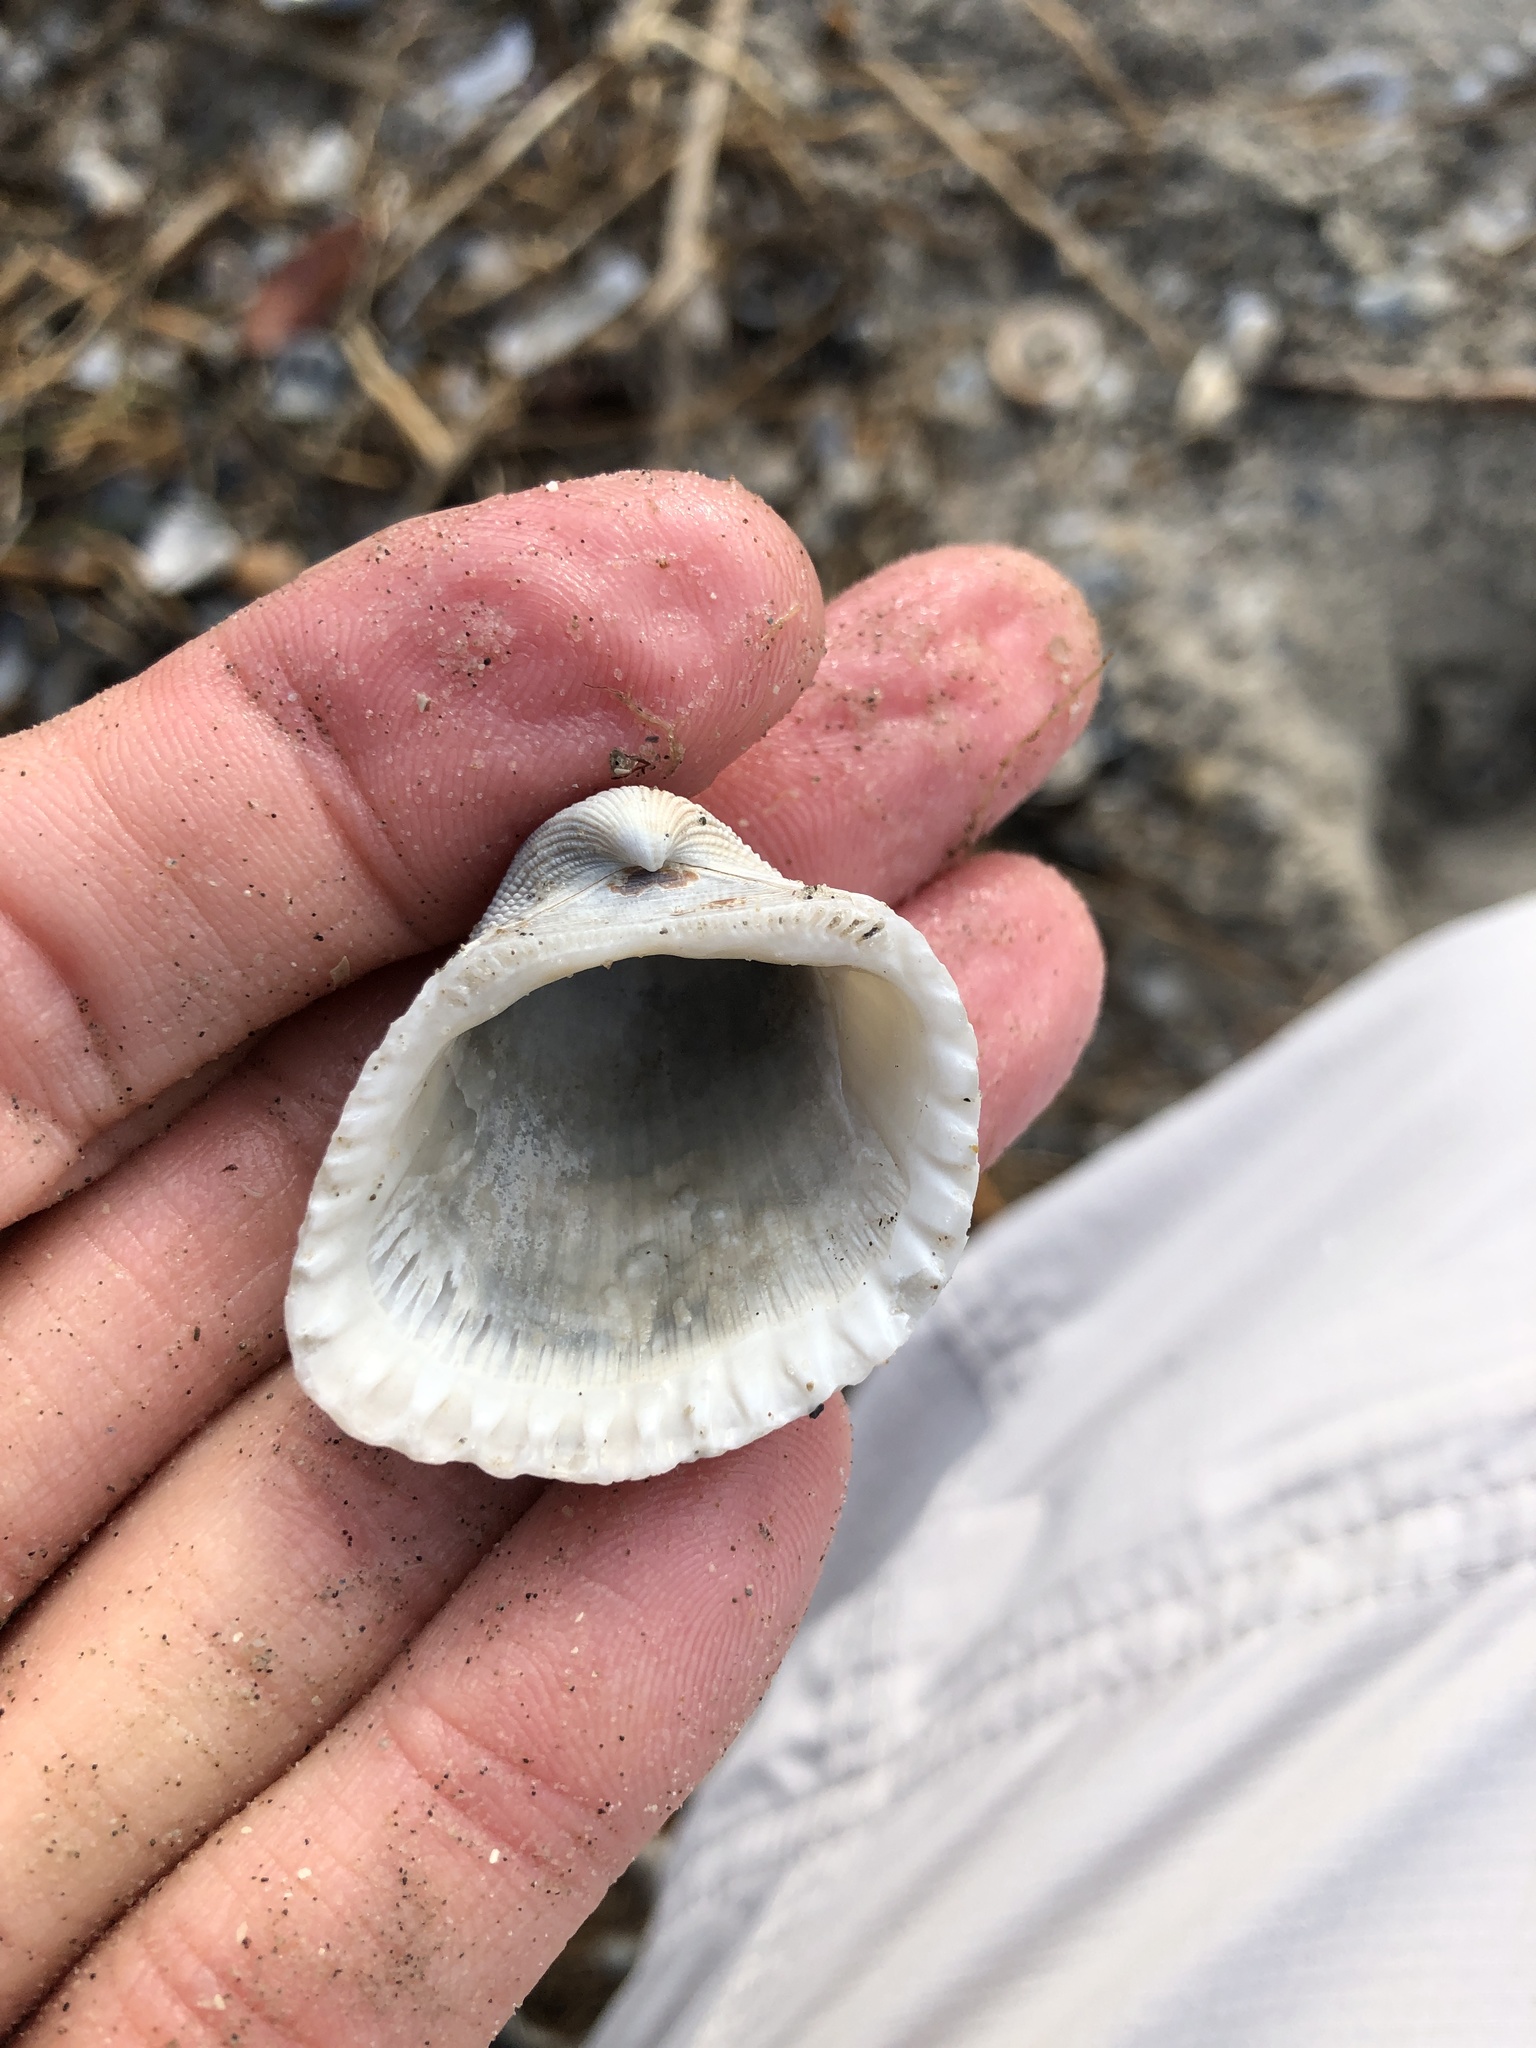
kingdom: Animalia
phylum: Mollusca
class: Bivalvia
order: Arcida
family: Arcidae
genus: Anadara
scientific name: Anadara brasiliana
